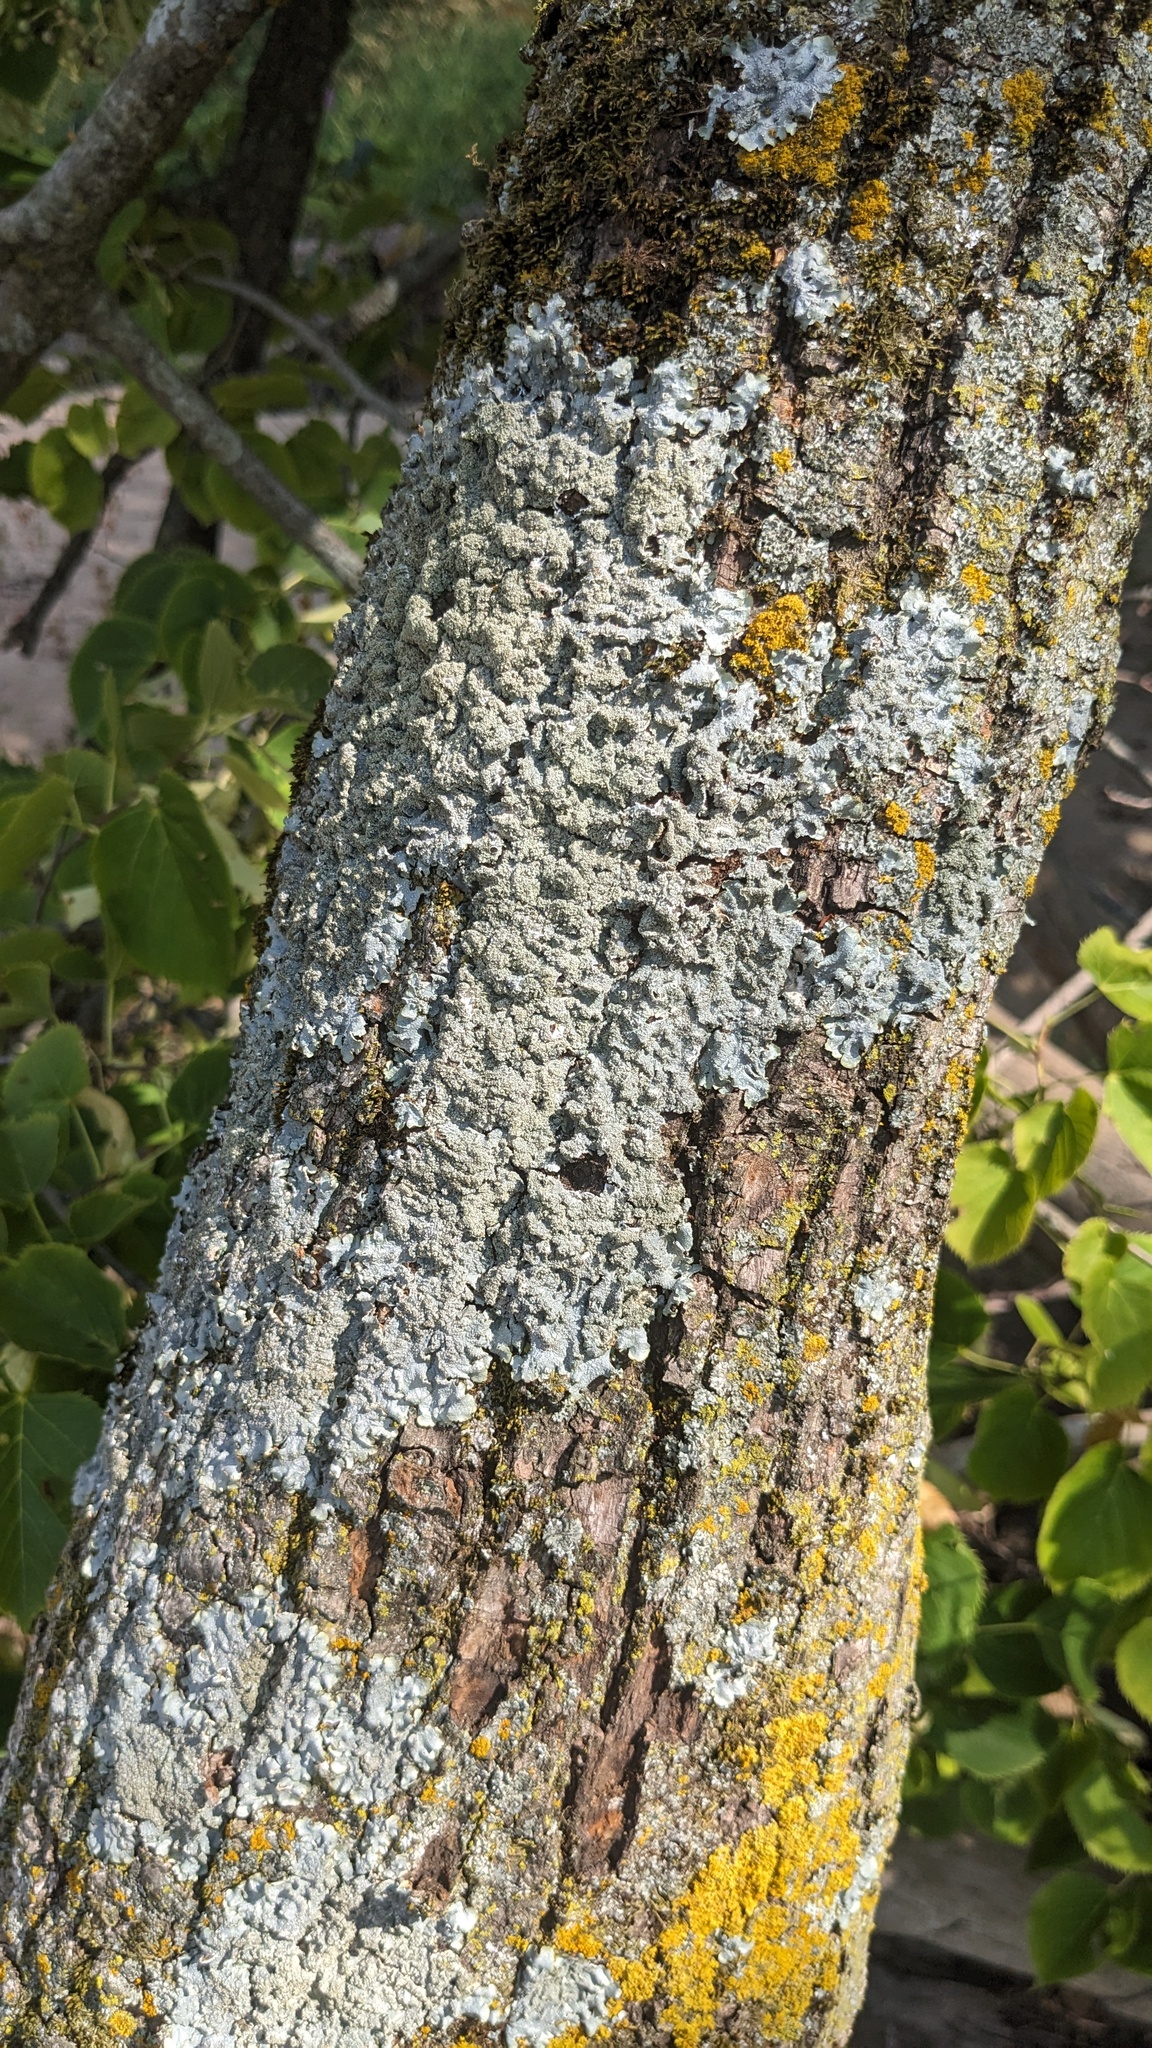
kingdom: Fungi
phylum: Ascomycota
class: Lecanoromycetes
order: Lecanorales
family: Parmeliaceae
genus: Punctelia
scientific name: Punctelia
